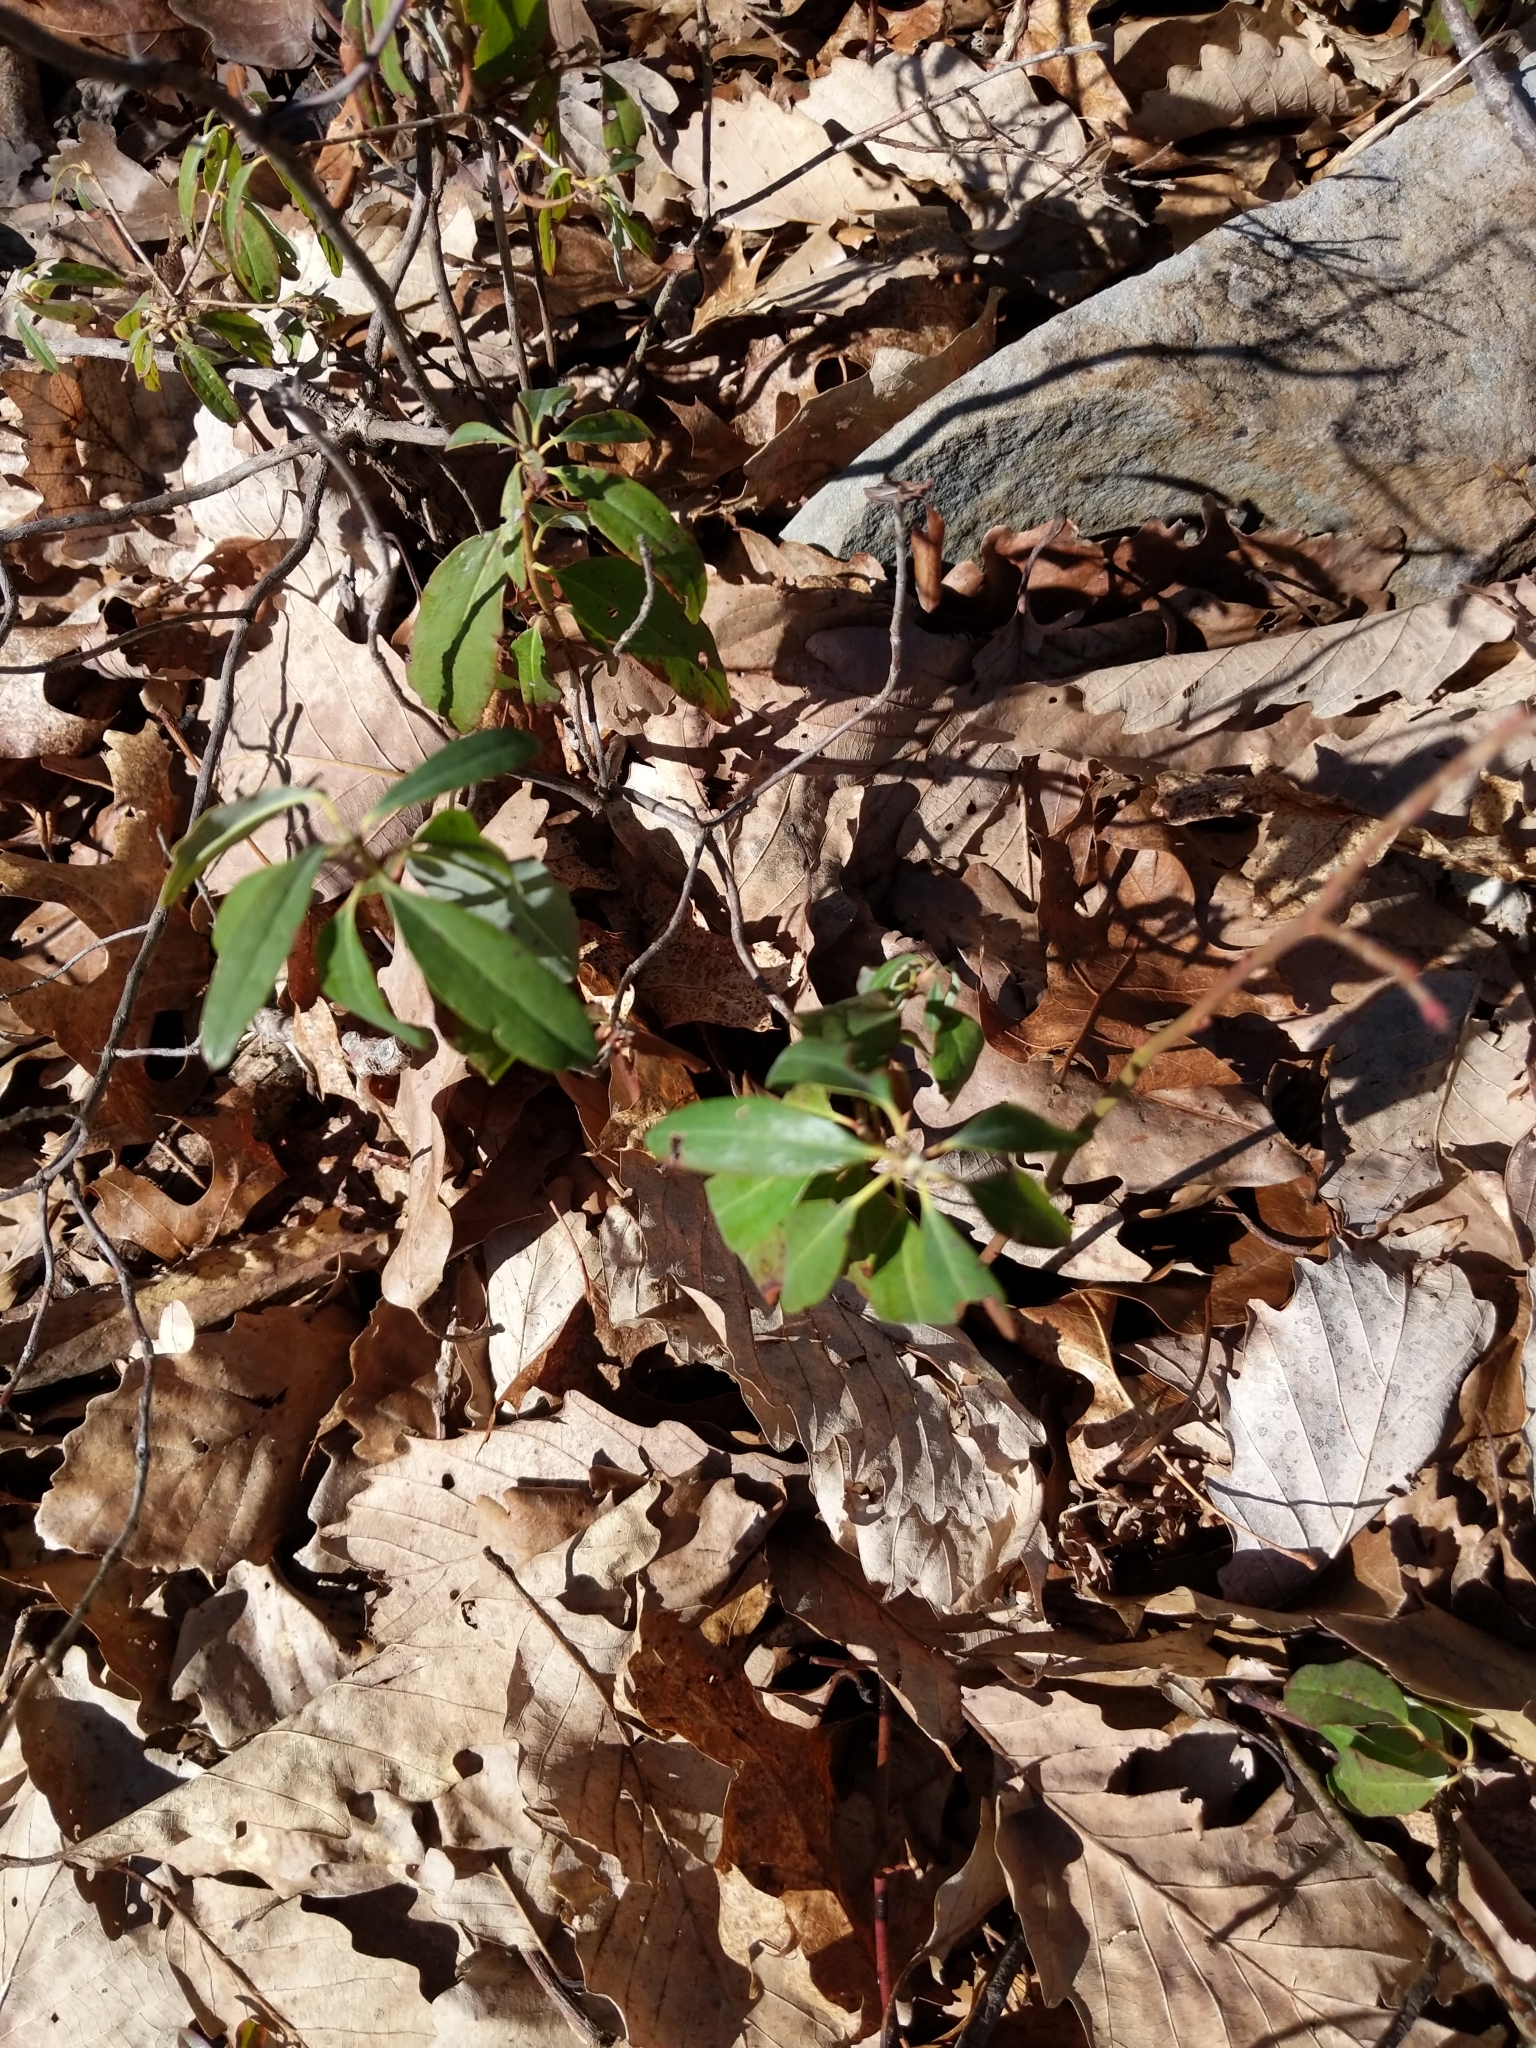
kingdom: Plantae
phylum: Tracheophyta
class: Magnoliopsida
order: Ericales
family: Ericaceae
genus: Kalmia
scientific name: Kalmia angustifolia
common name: Sheep-laurel
